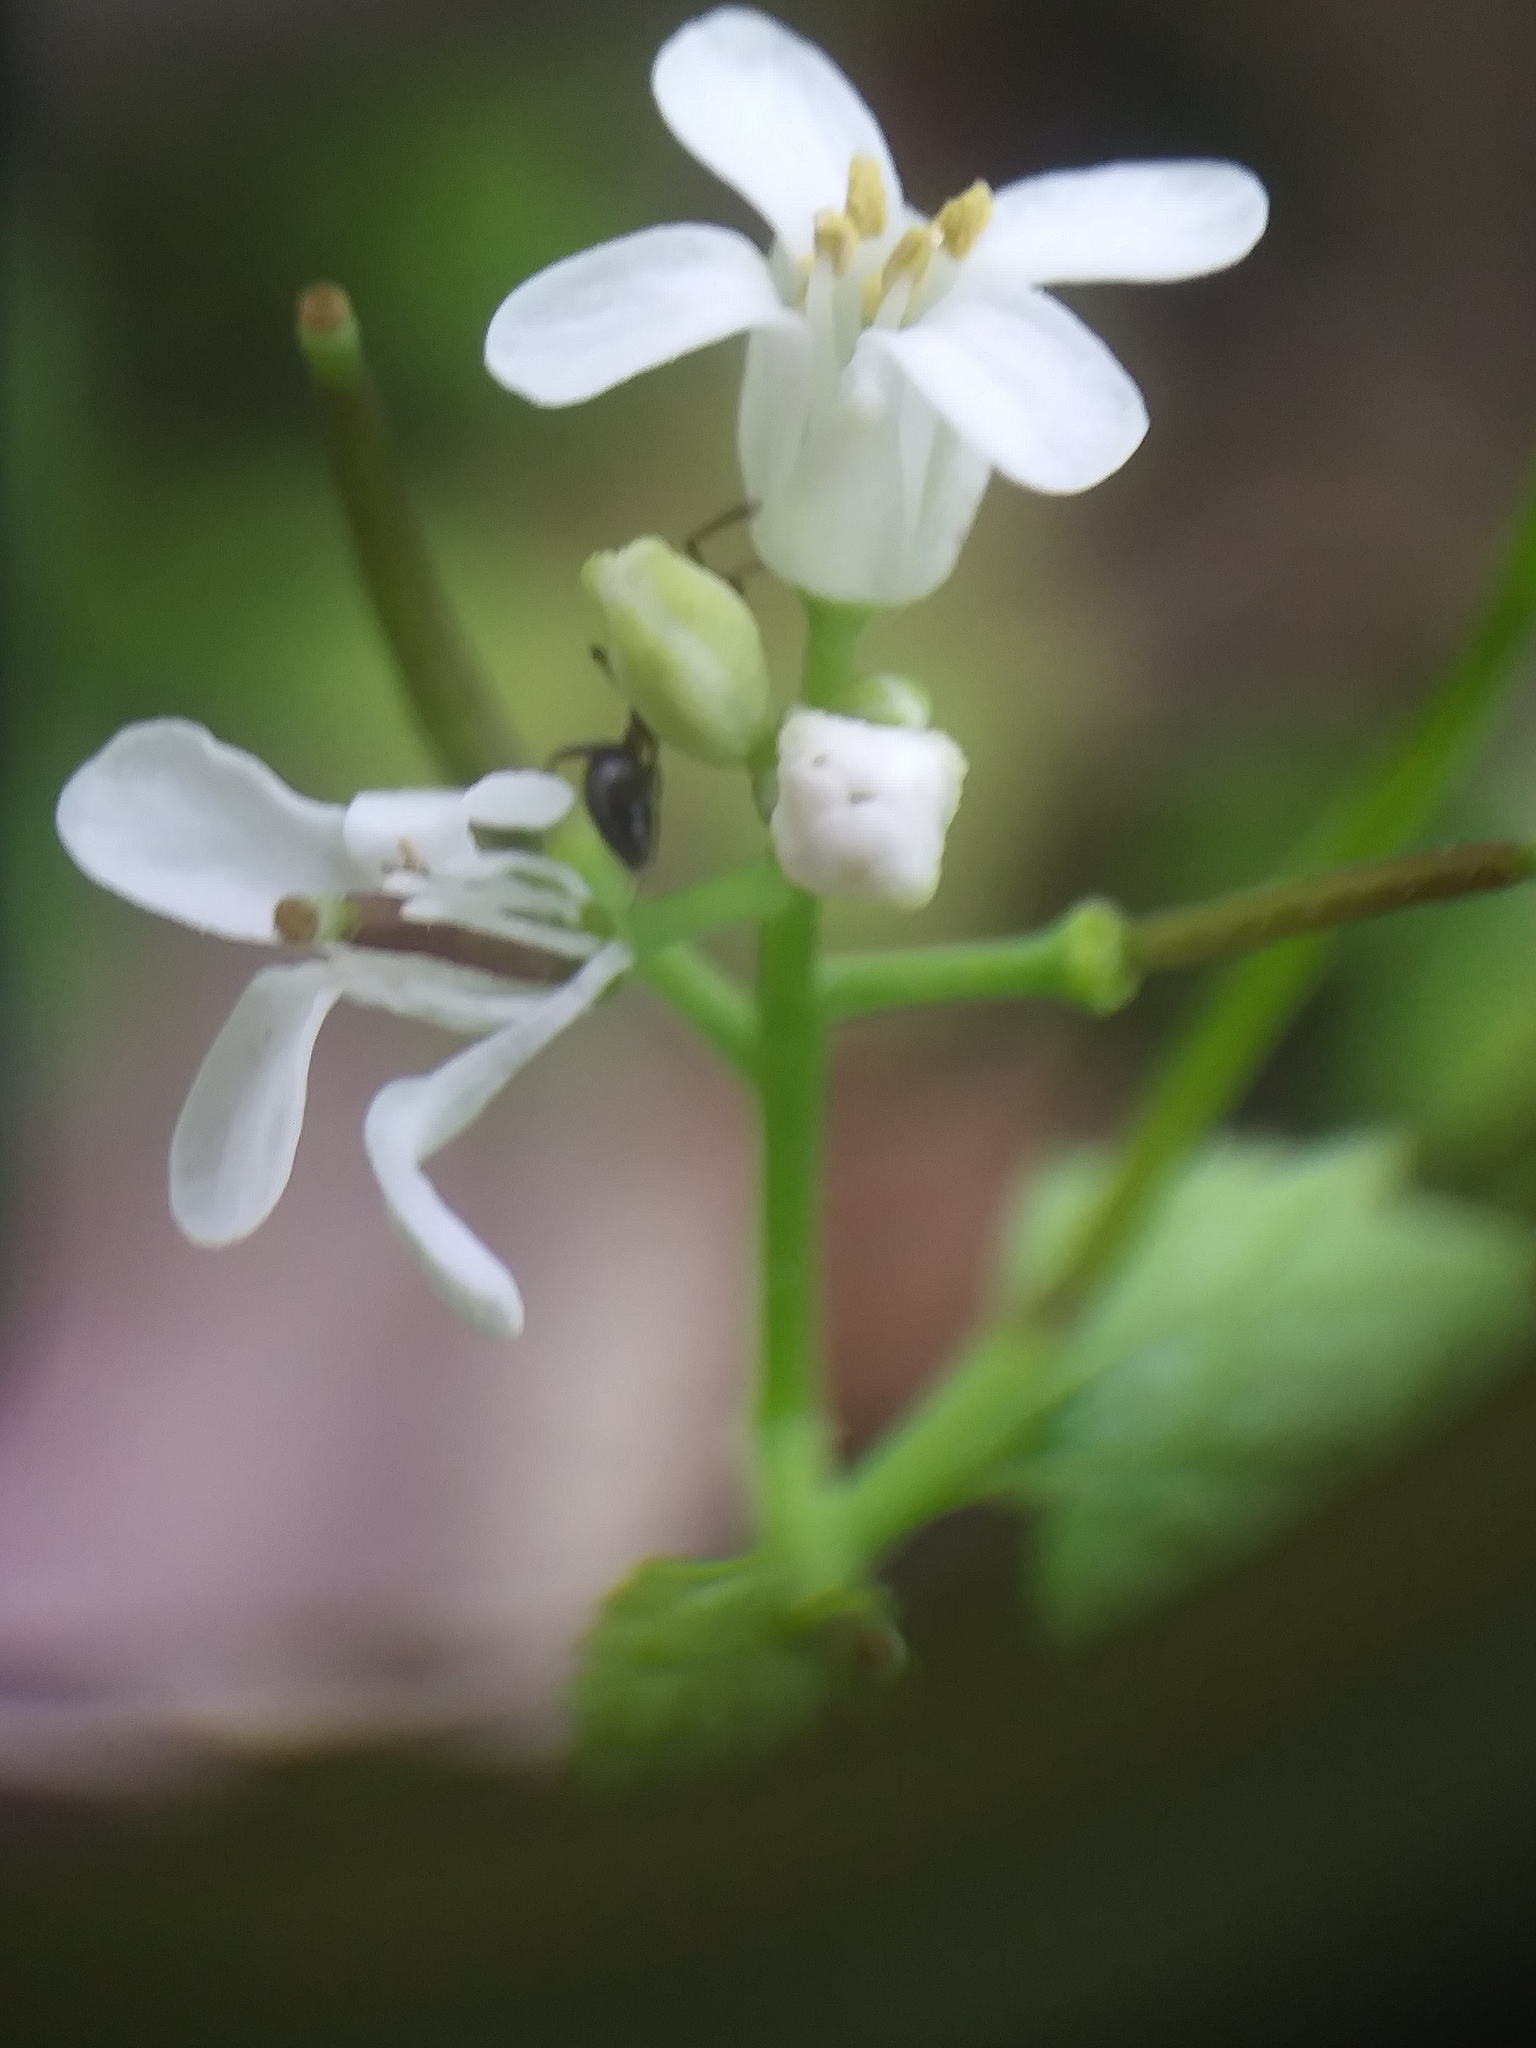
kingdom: Plantae
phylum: Tracheophyta
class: Magnoliopsida
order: Brassicales
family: Brassicaceae
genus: Alliaria
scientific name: Alliaria petiolata
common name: Garlic mustard
